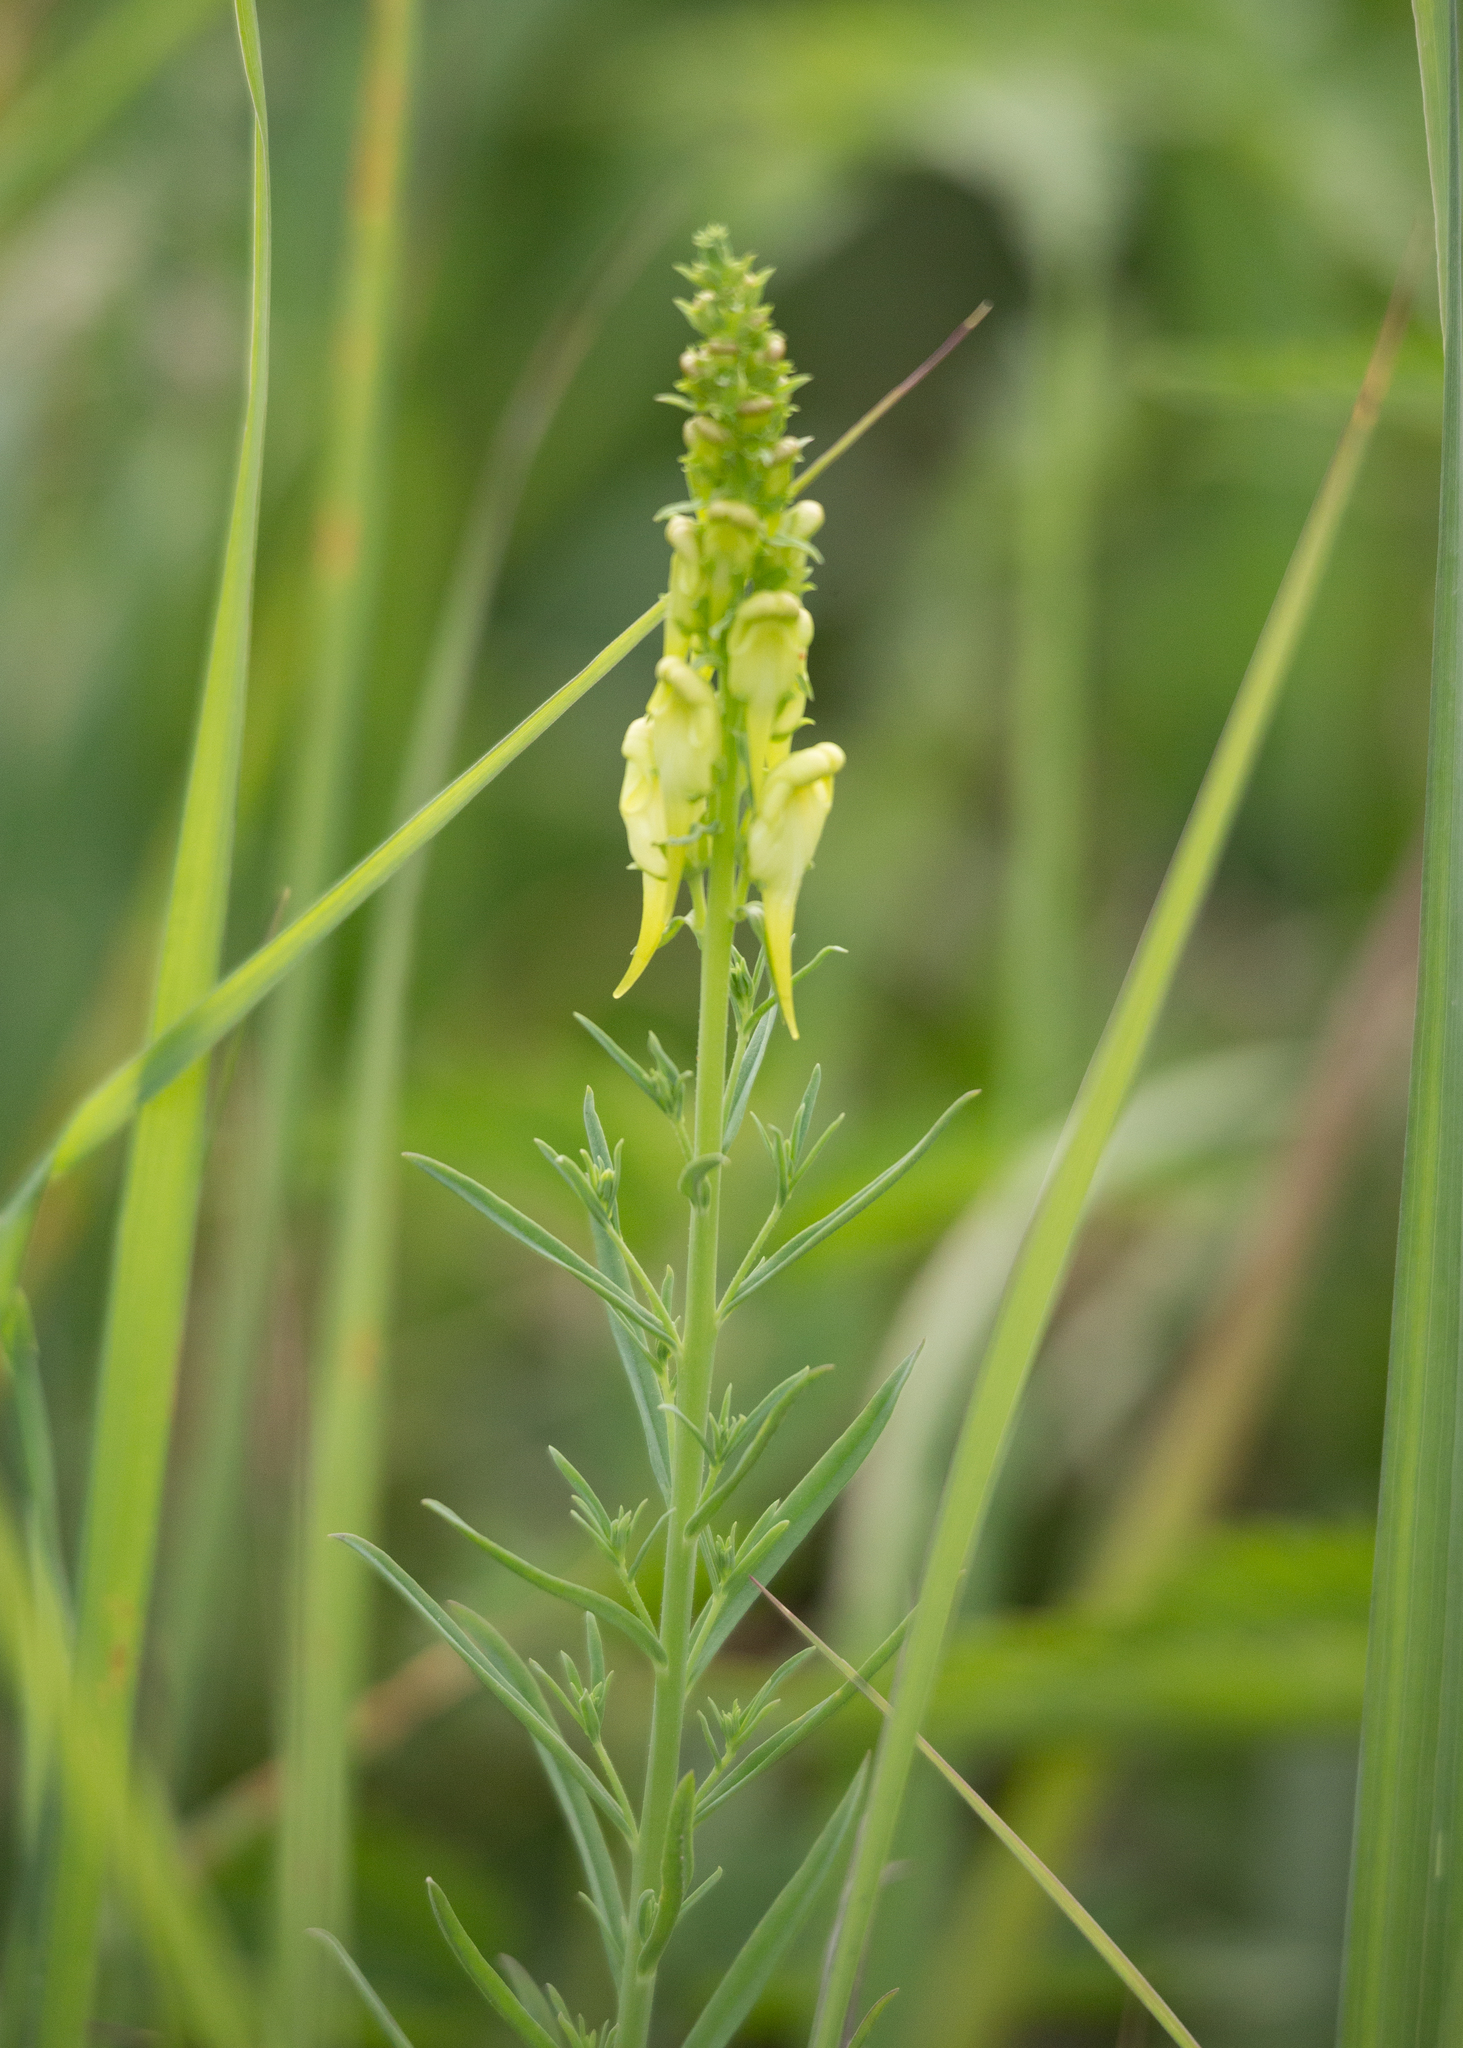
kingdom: Plantae
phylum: Tracheophyta
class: Magnoliopsida
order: Lamiales
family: Plantaginaceae
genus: Linaria
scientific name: Linaria vulgaris
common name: Butter and eggs
